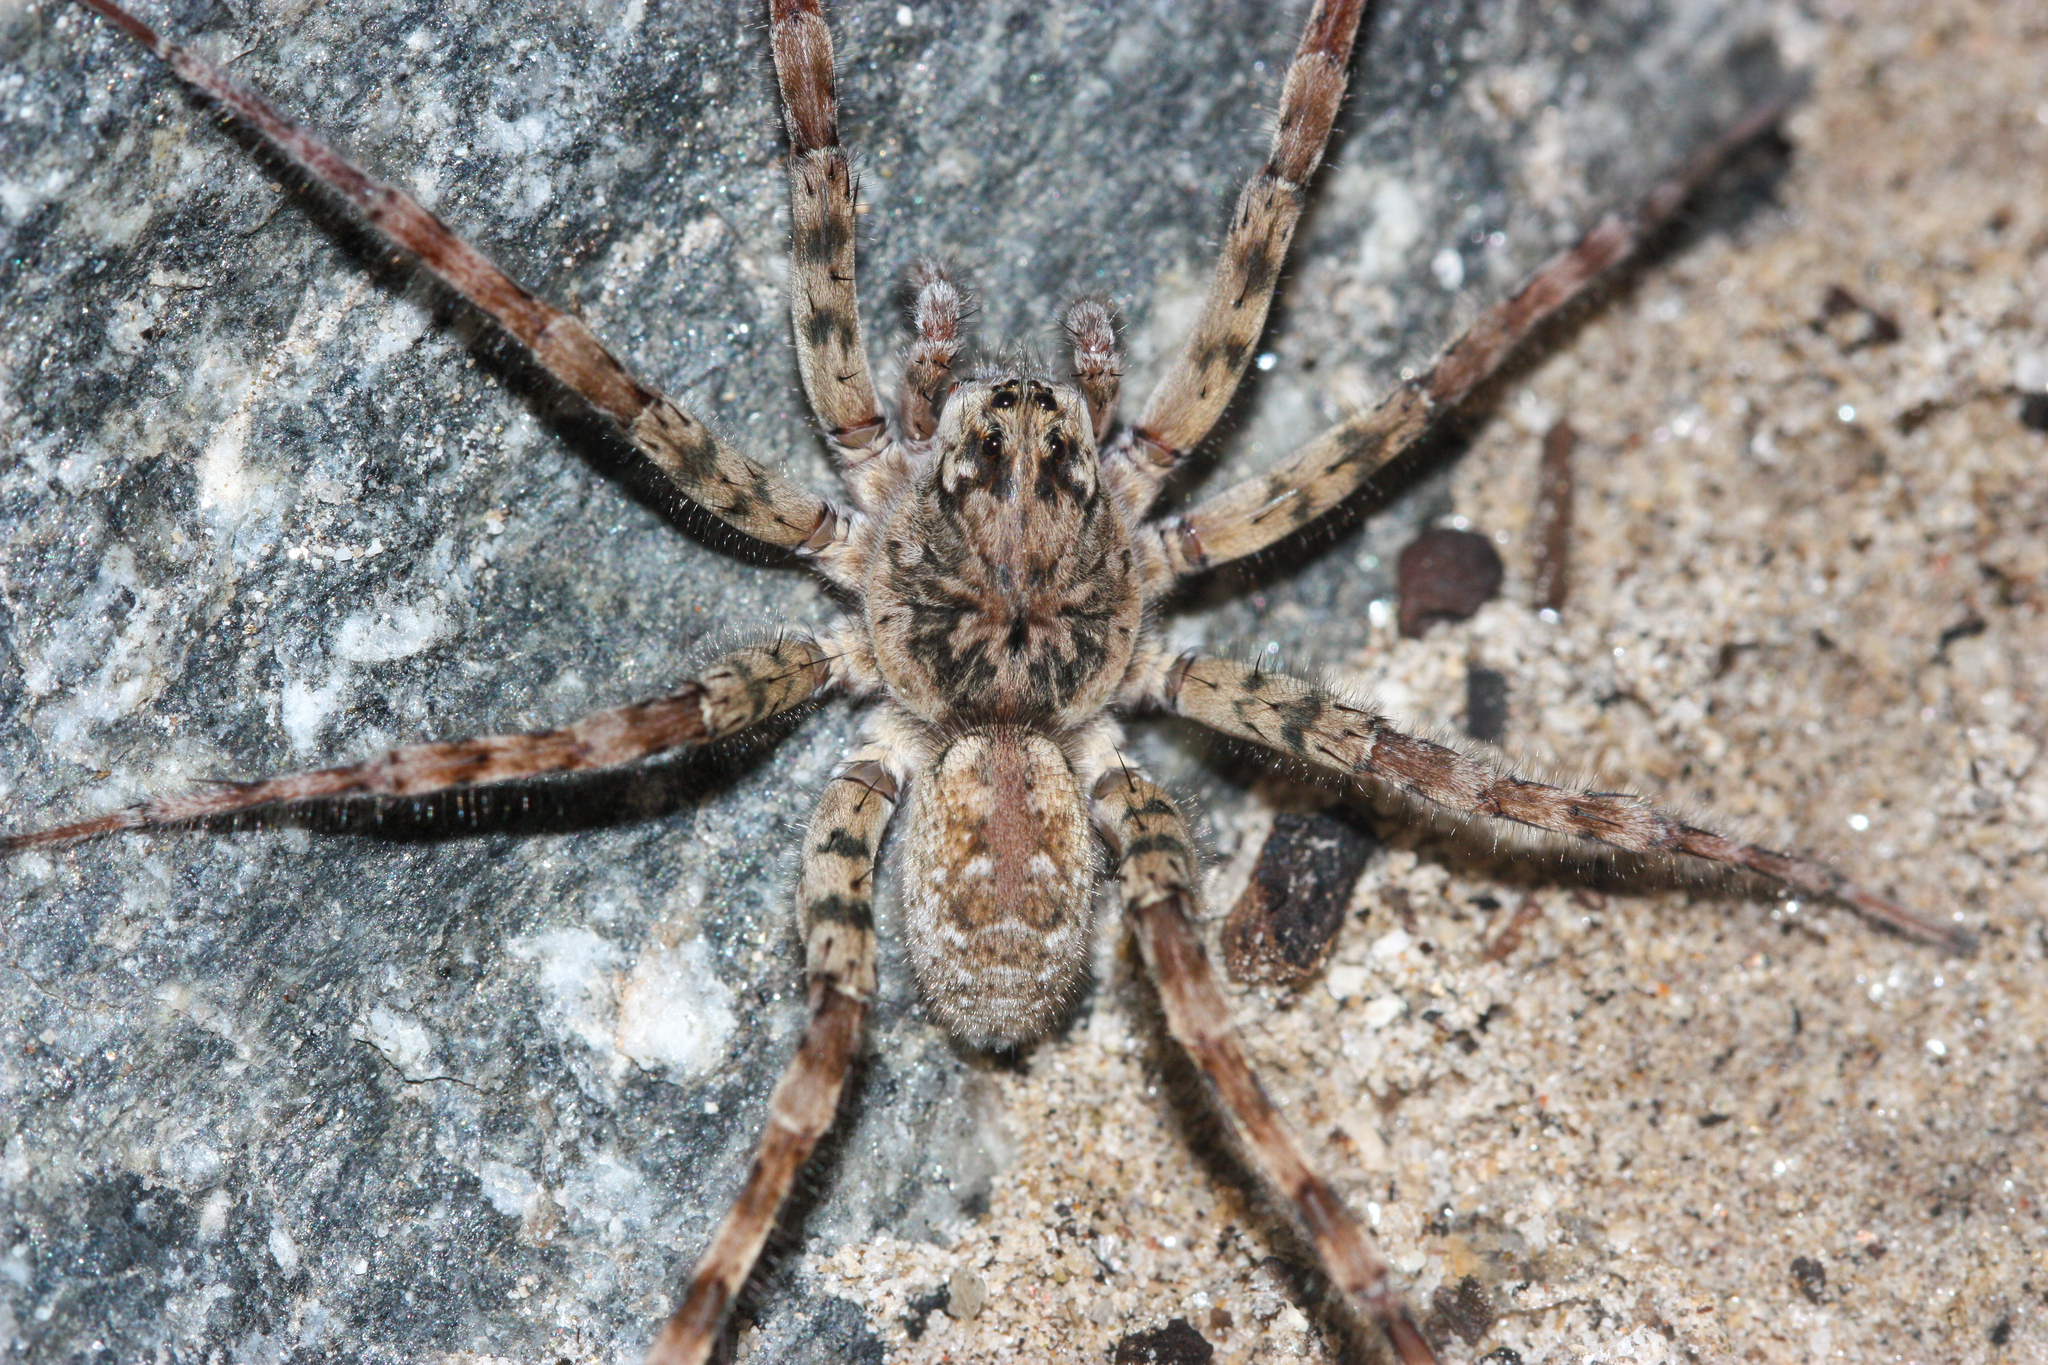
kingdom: Animalia
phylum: Arthropoda
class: Arachnida
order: Araneae
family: Lycosidae
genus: Arctosa
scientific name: Arctosa littoralis
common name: Wolf spiders
